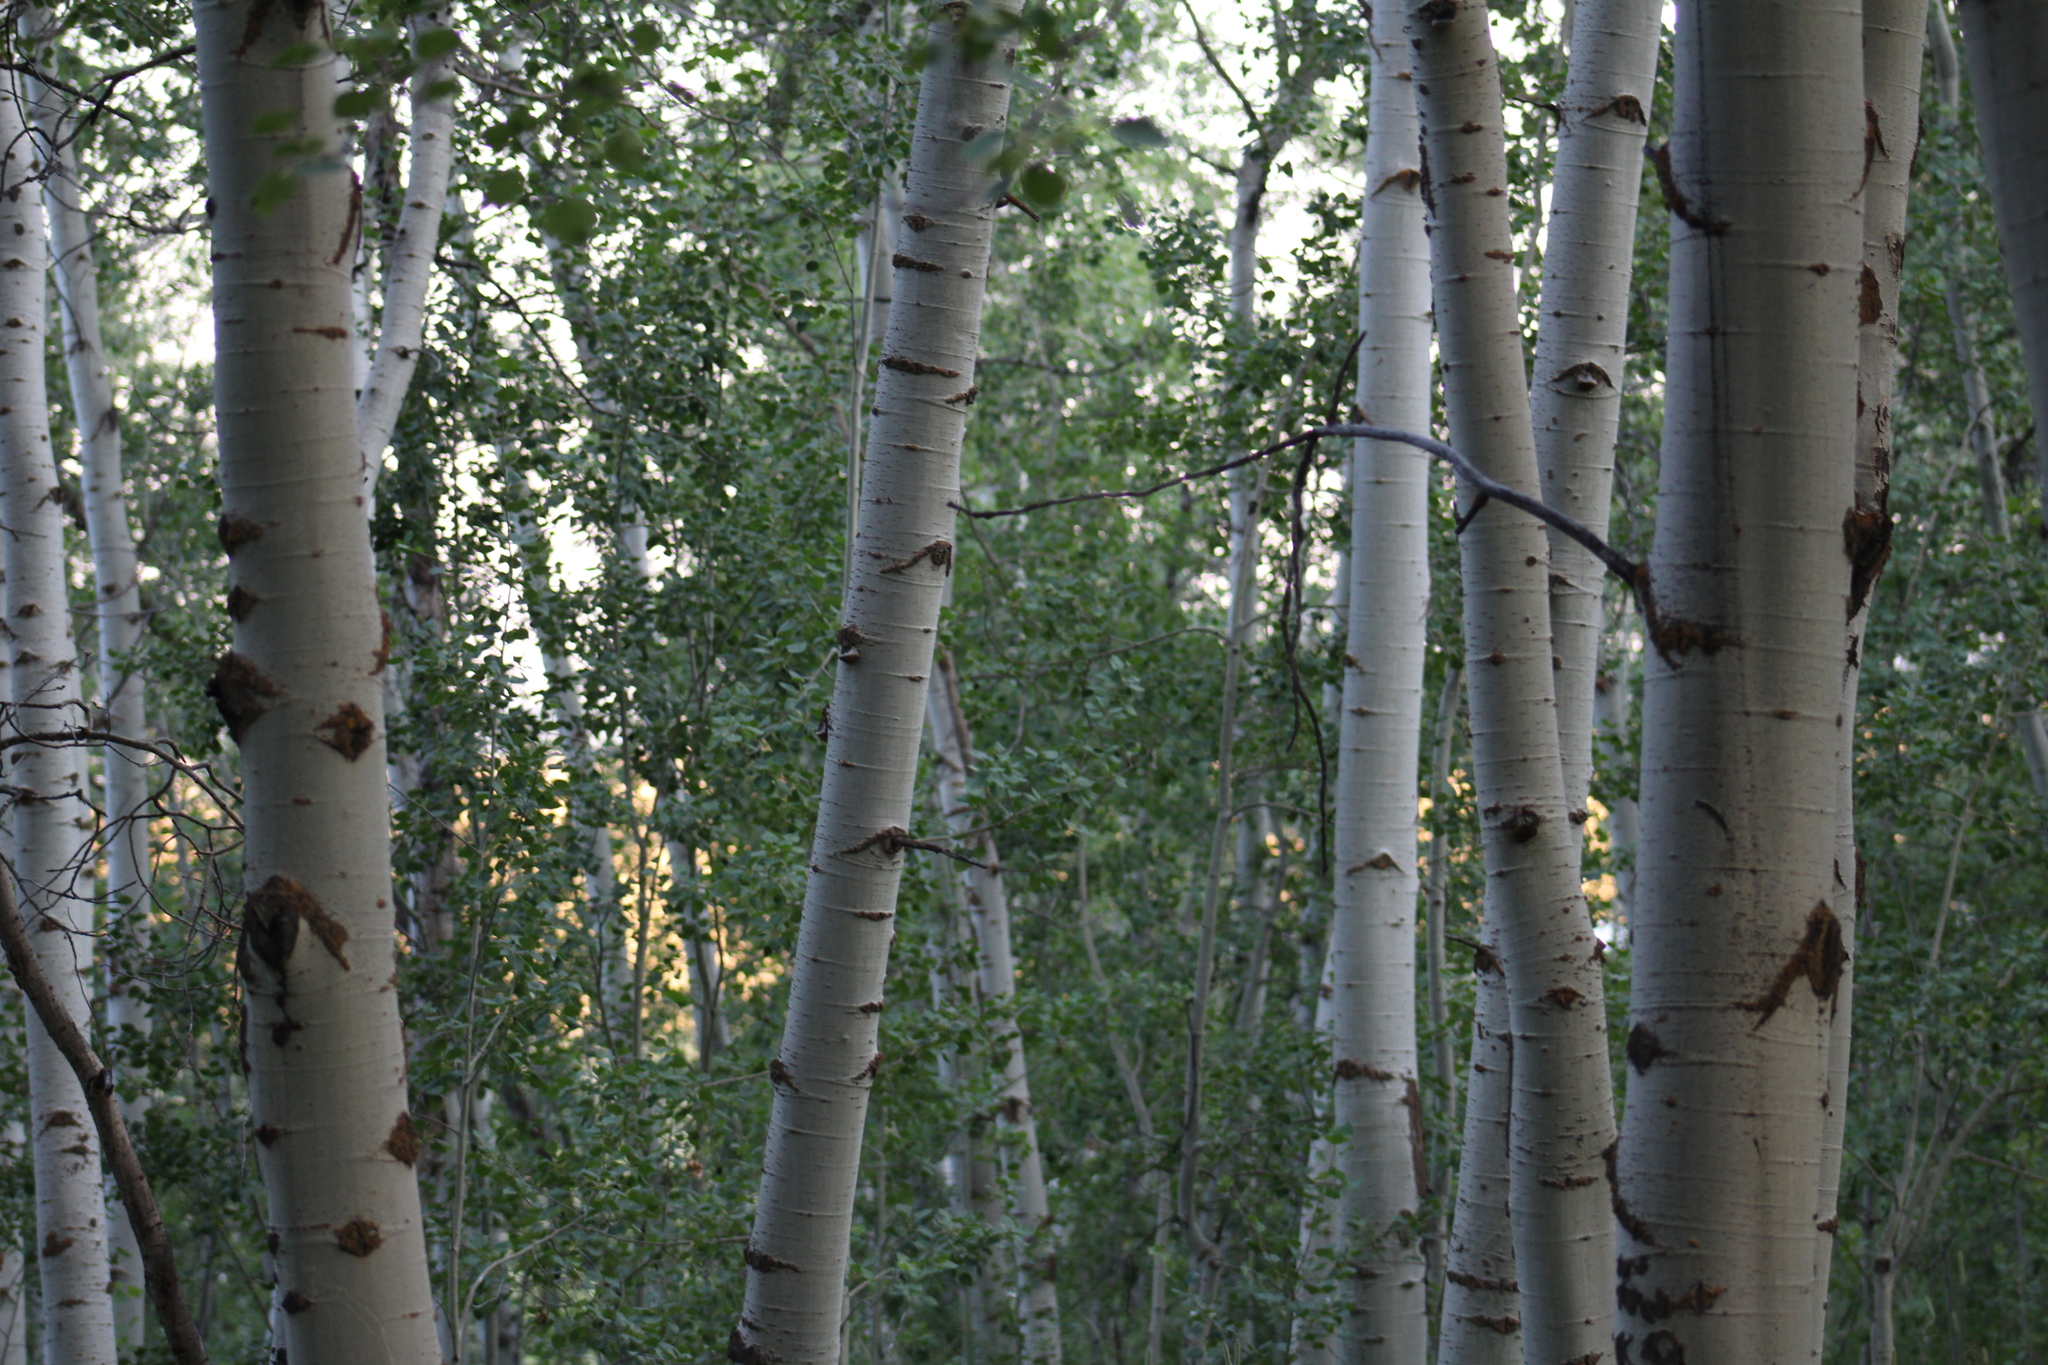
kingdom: Plantae
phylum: Tracheophyta
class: Magnoliopsida
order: Malpighiales
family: Salicaceae
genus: Populus
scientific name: Populus tremuloides
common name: Quaking aspen
